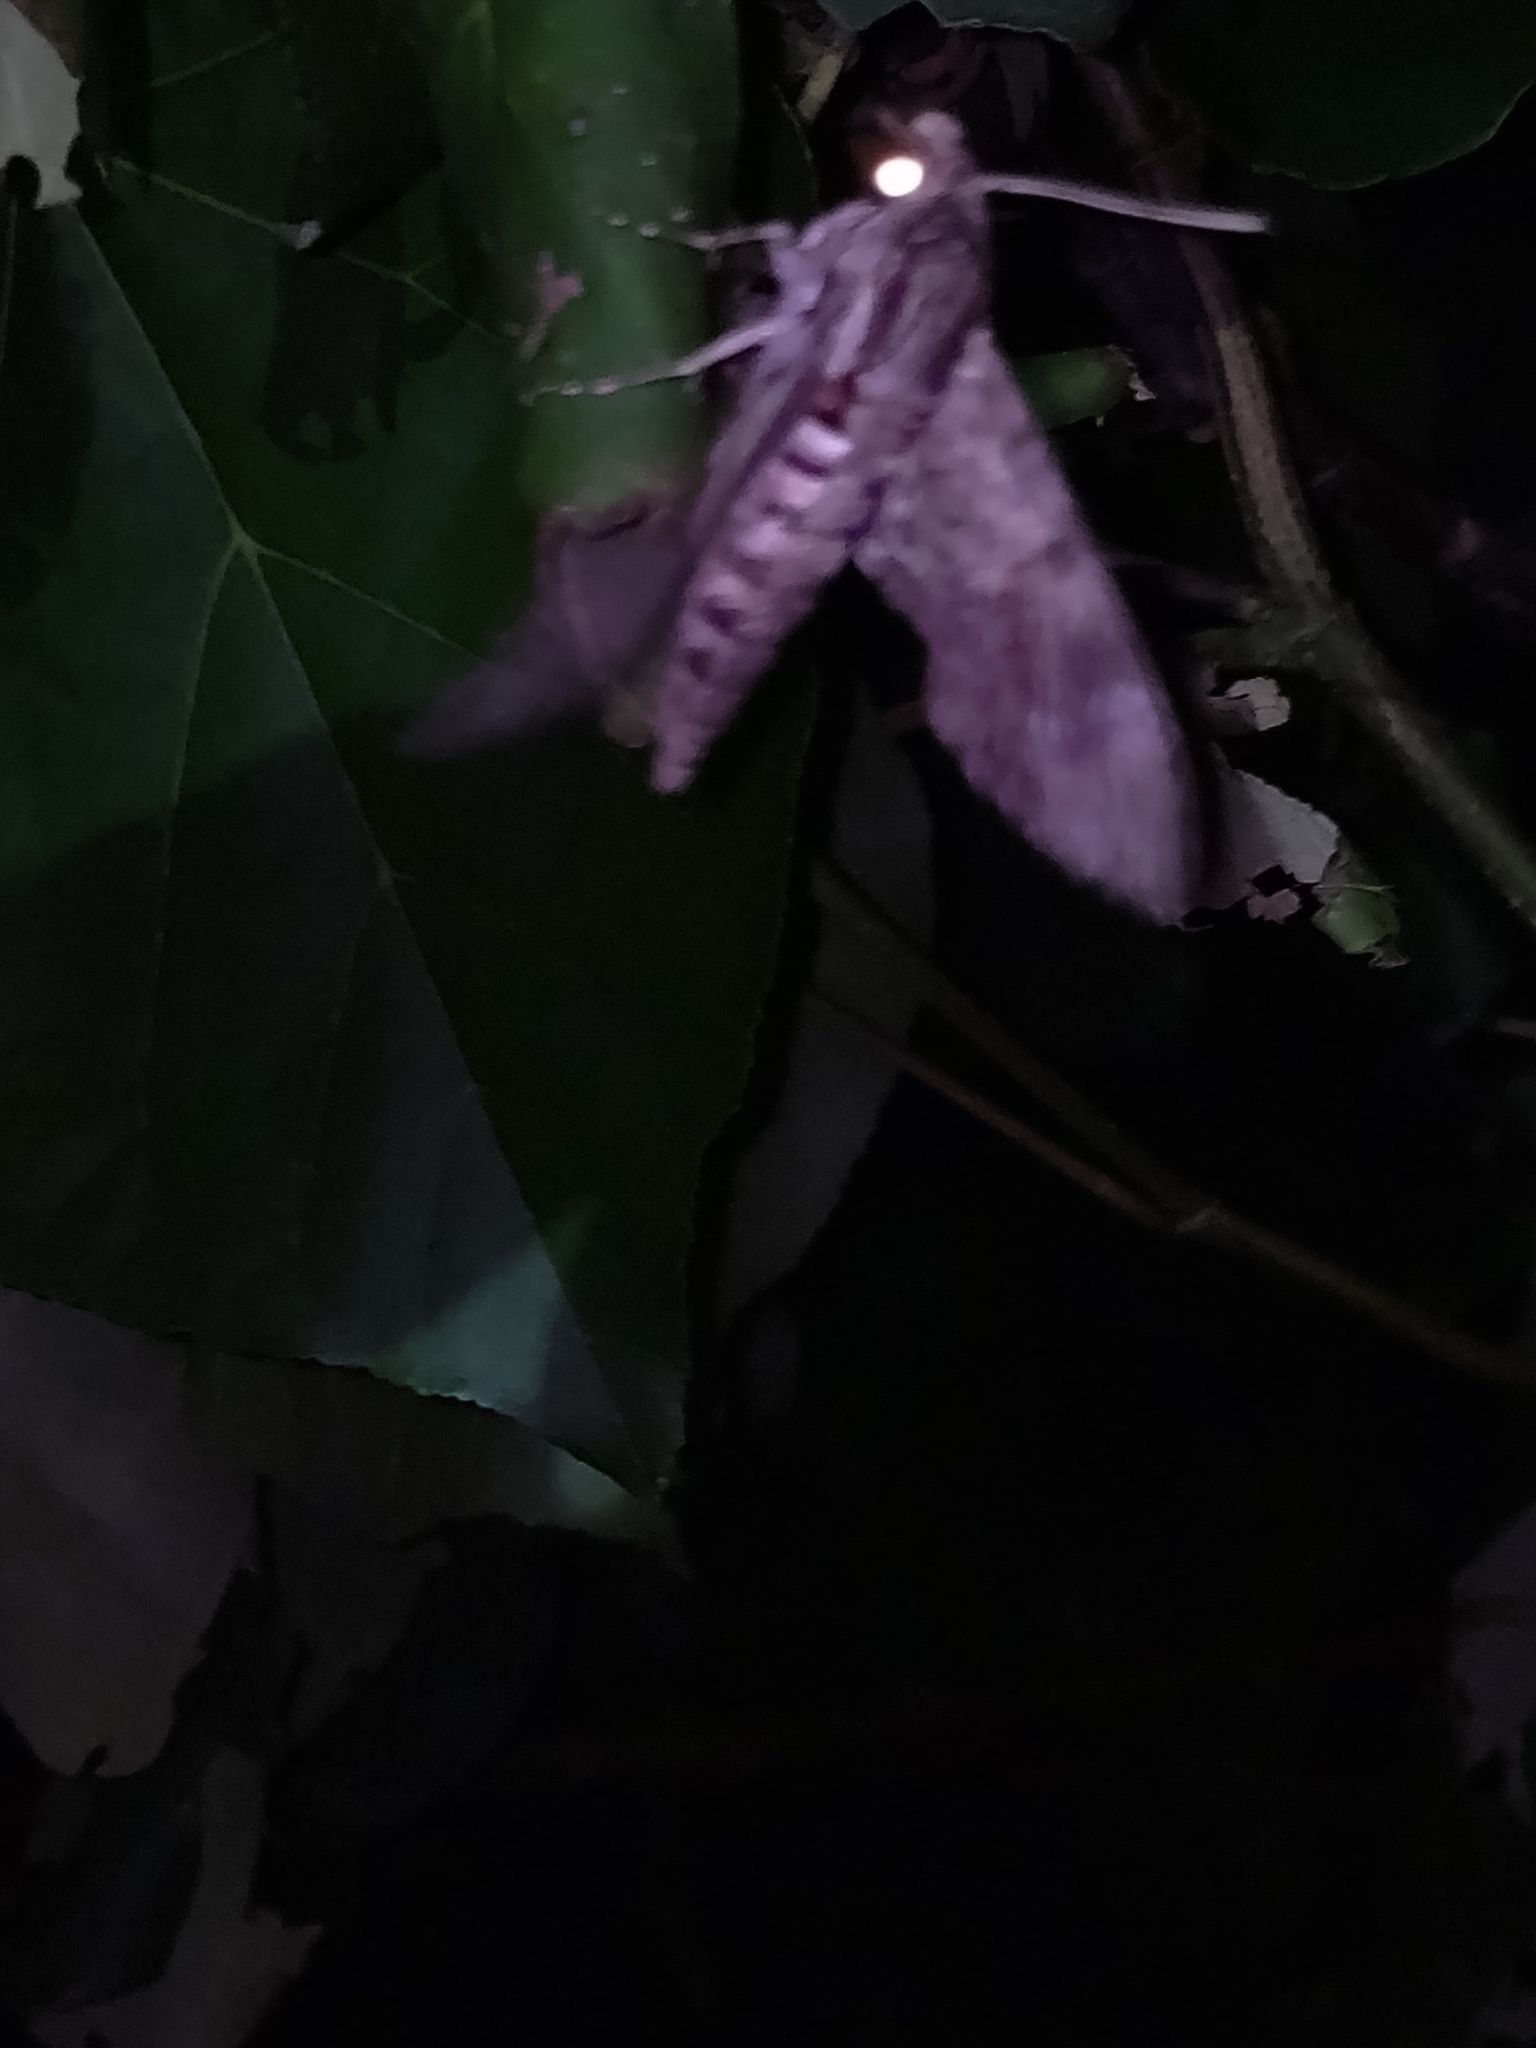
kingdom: Animalia
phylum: Arthropoda
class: Insecta
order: Lepidoptera
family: Sphingidae
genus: Agrius
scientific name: Agrius convolvuli
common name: Convolvulus hawkmoth
